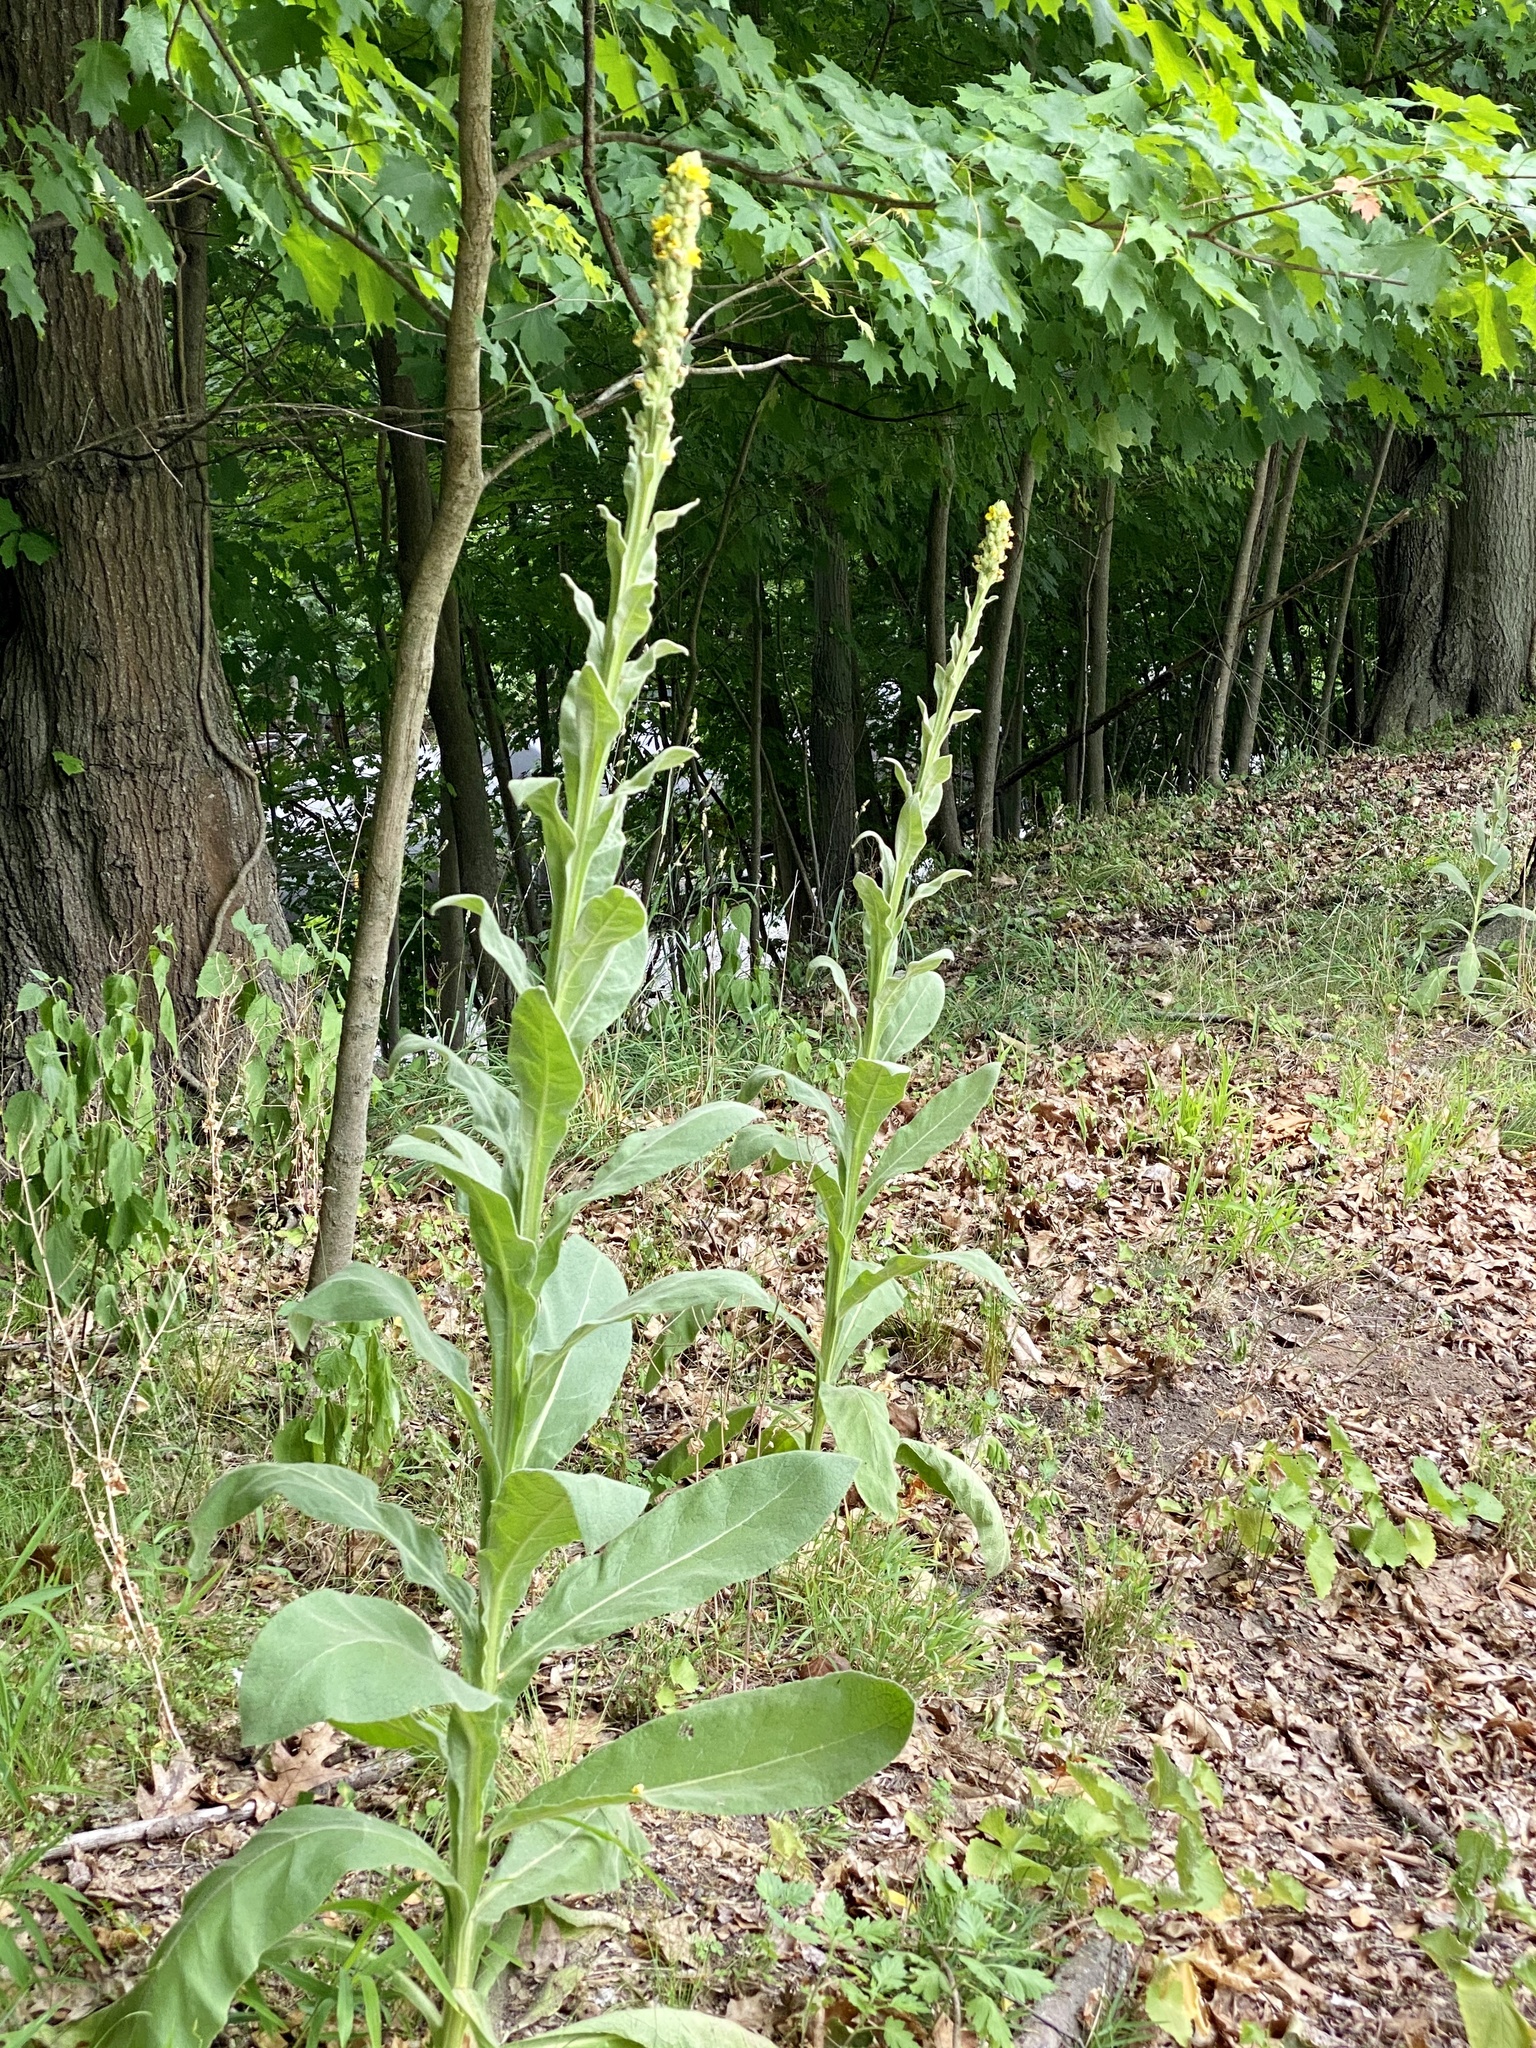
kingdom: Plantae
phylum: Tracheophyta
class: Magnoliopsida
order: Lamiales
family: Scrophulariaceae
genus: Verbascum
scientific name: Verbascum thapsus
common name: Common mullein
